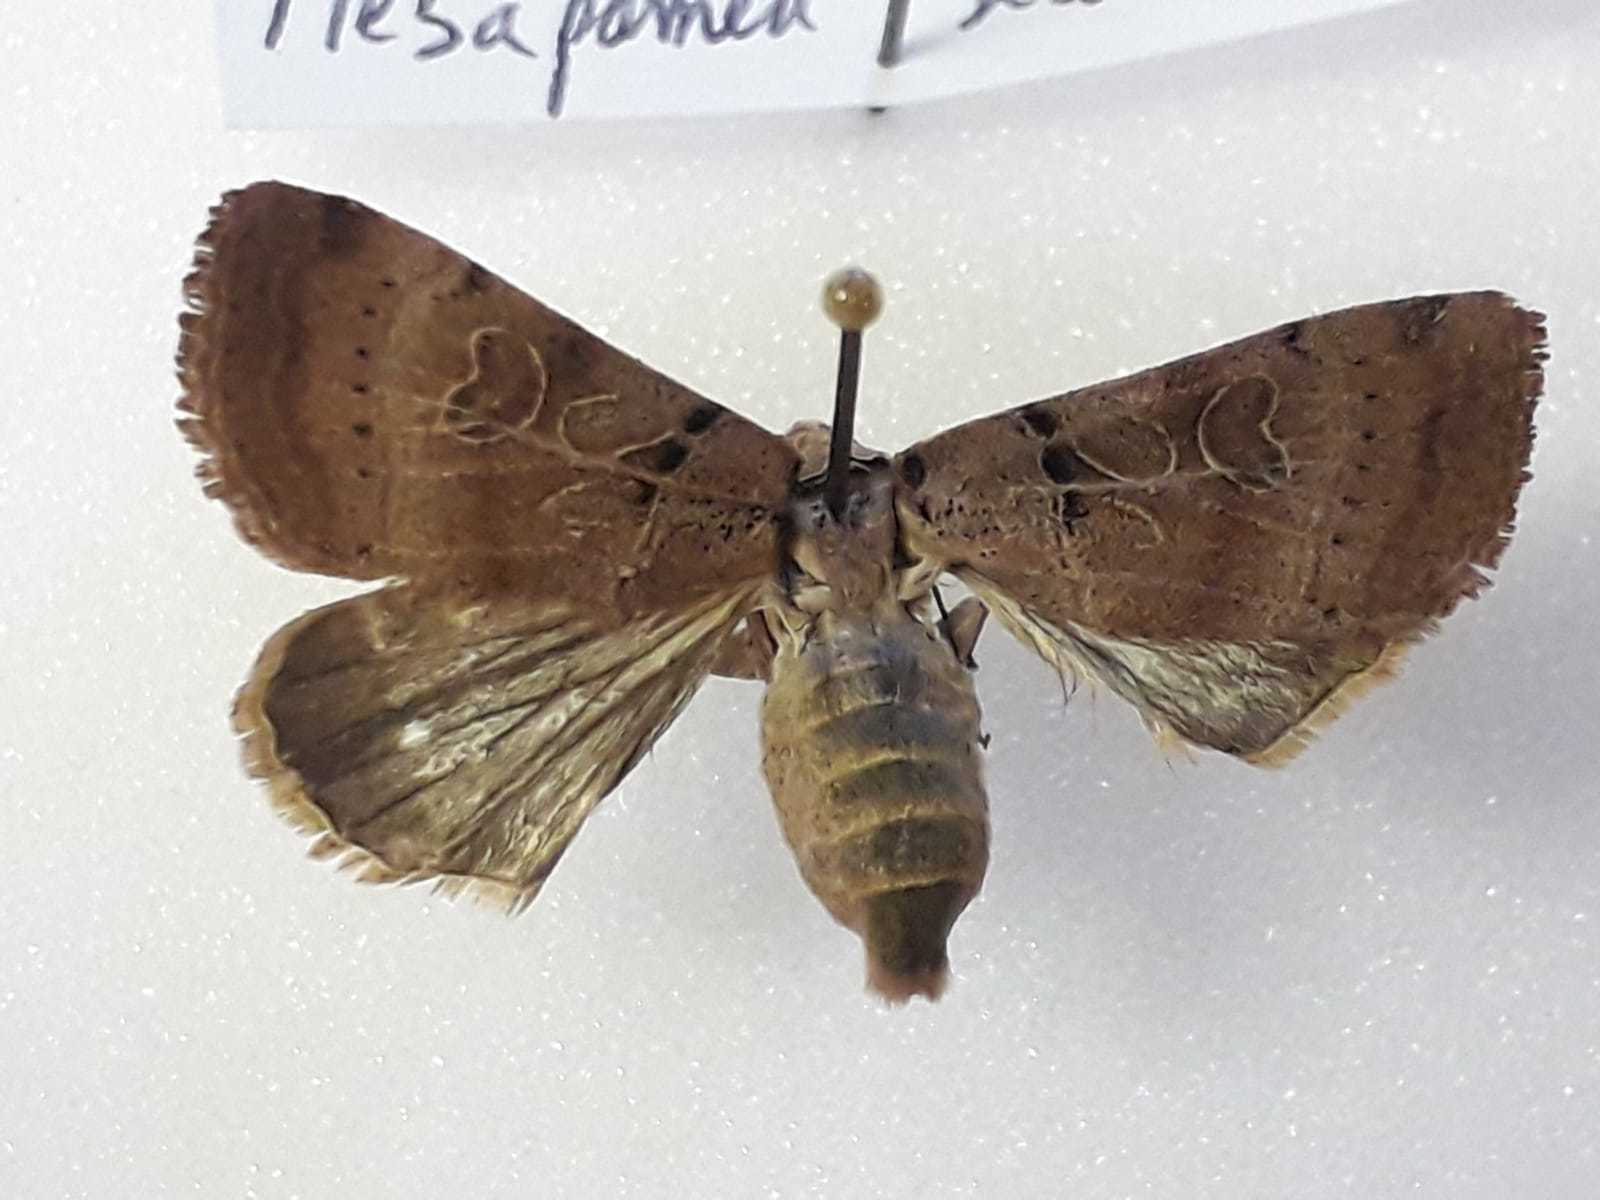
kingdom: Animalia
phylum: Arthropoda
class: Insecta
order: Lepidoptera
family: Noctuidae
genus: Eugnorisma
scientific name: Eugnorisma depuncta
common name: Plain clay
